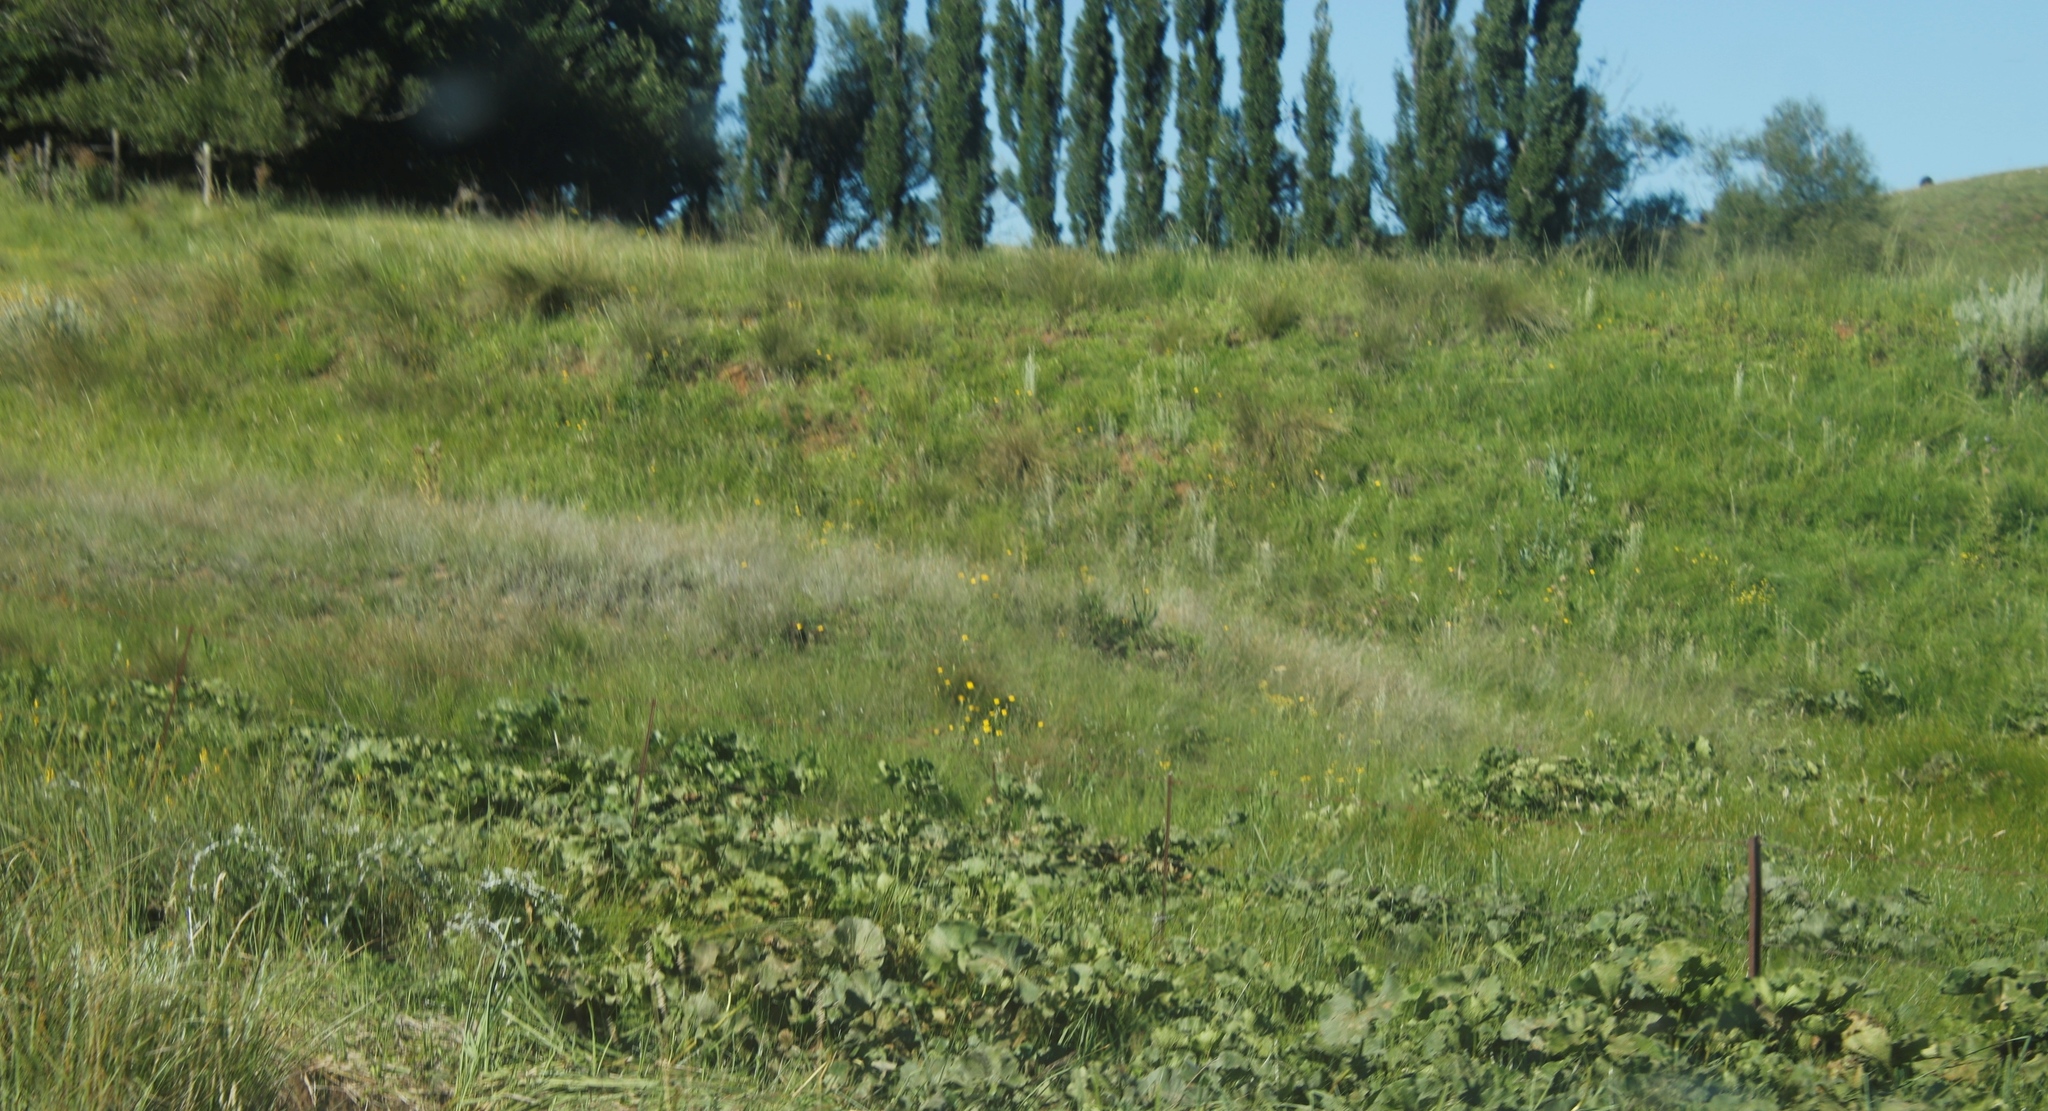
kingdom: Plantae
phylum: Tracheophyta
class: Magnoliopsida
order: Gunnerales
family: Gunneraceae
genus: Gunnera
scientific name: Gunnera perpensa
